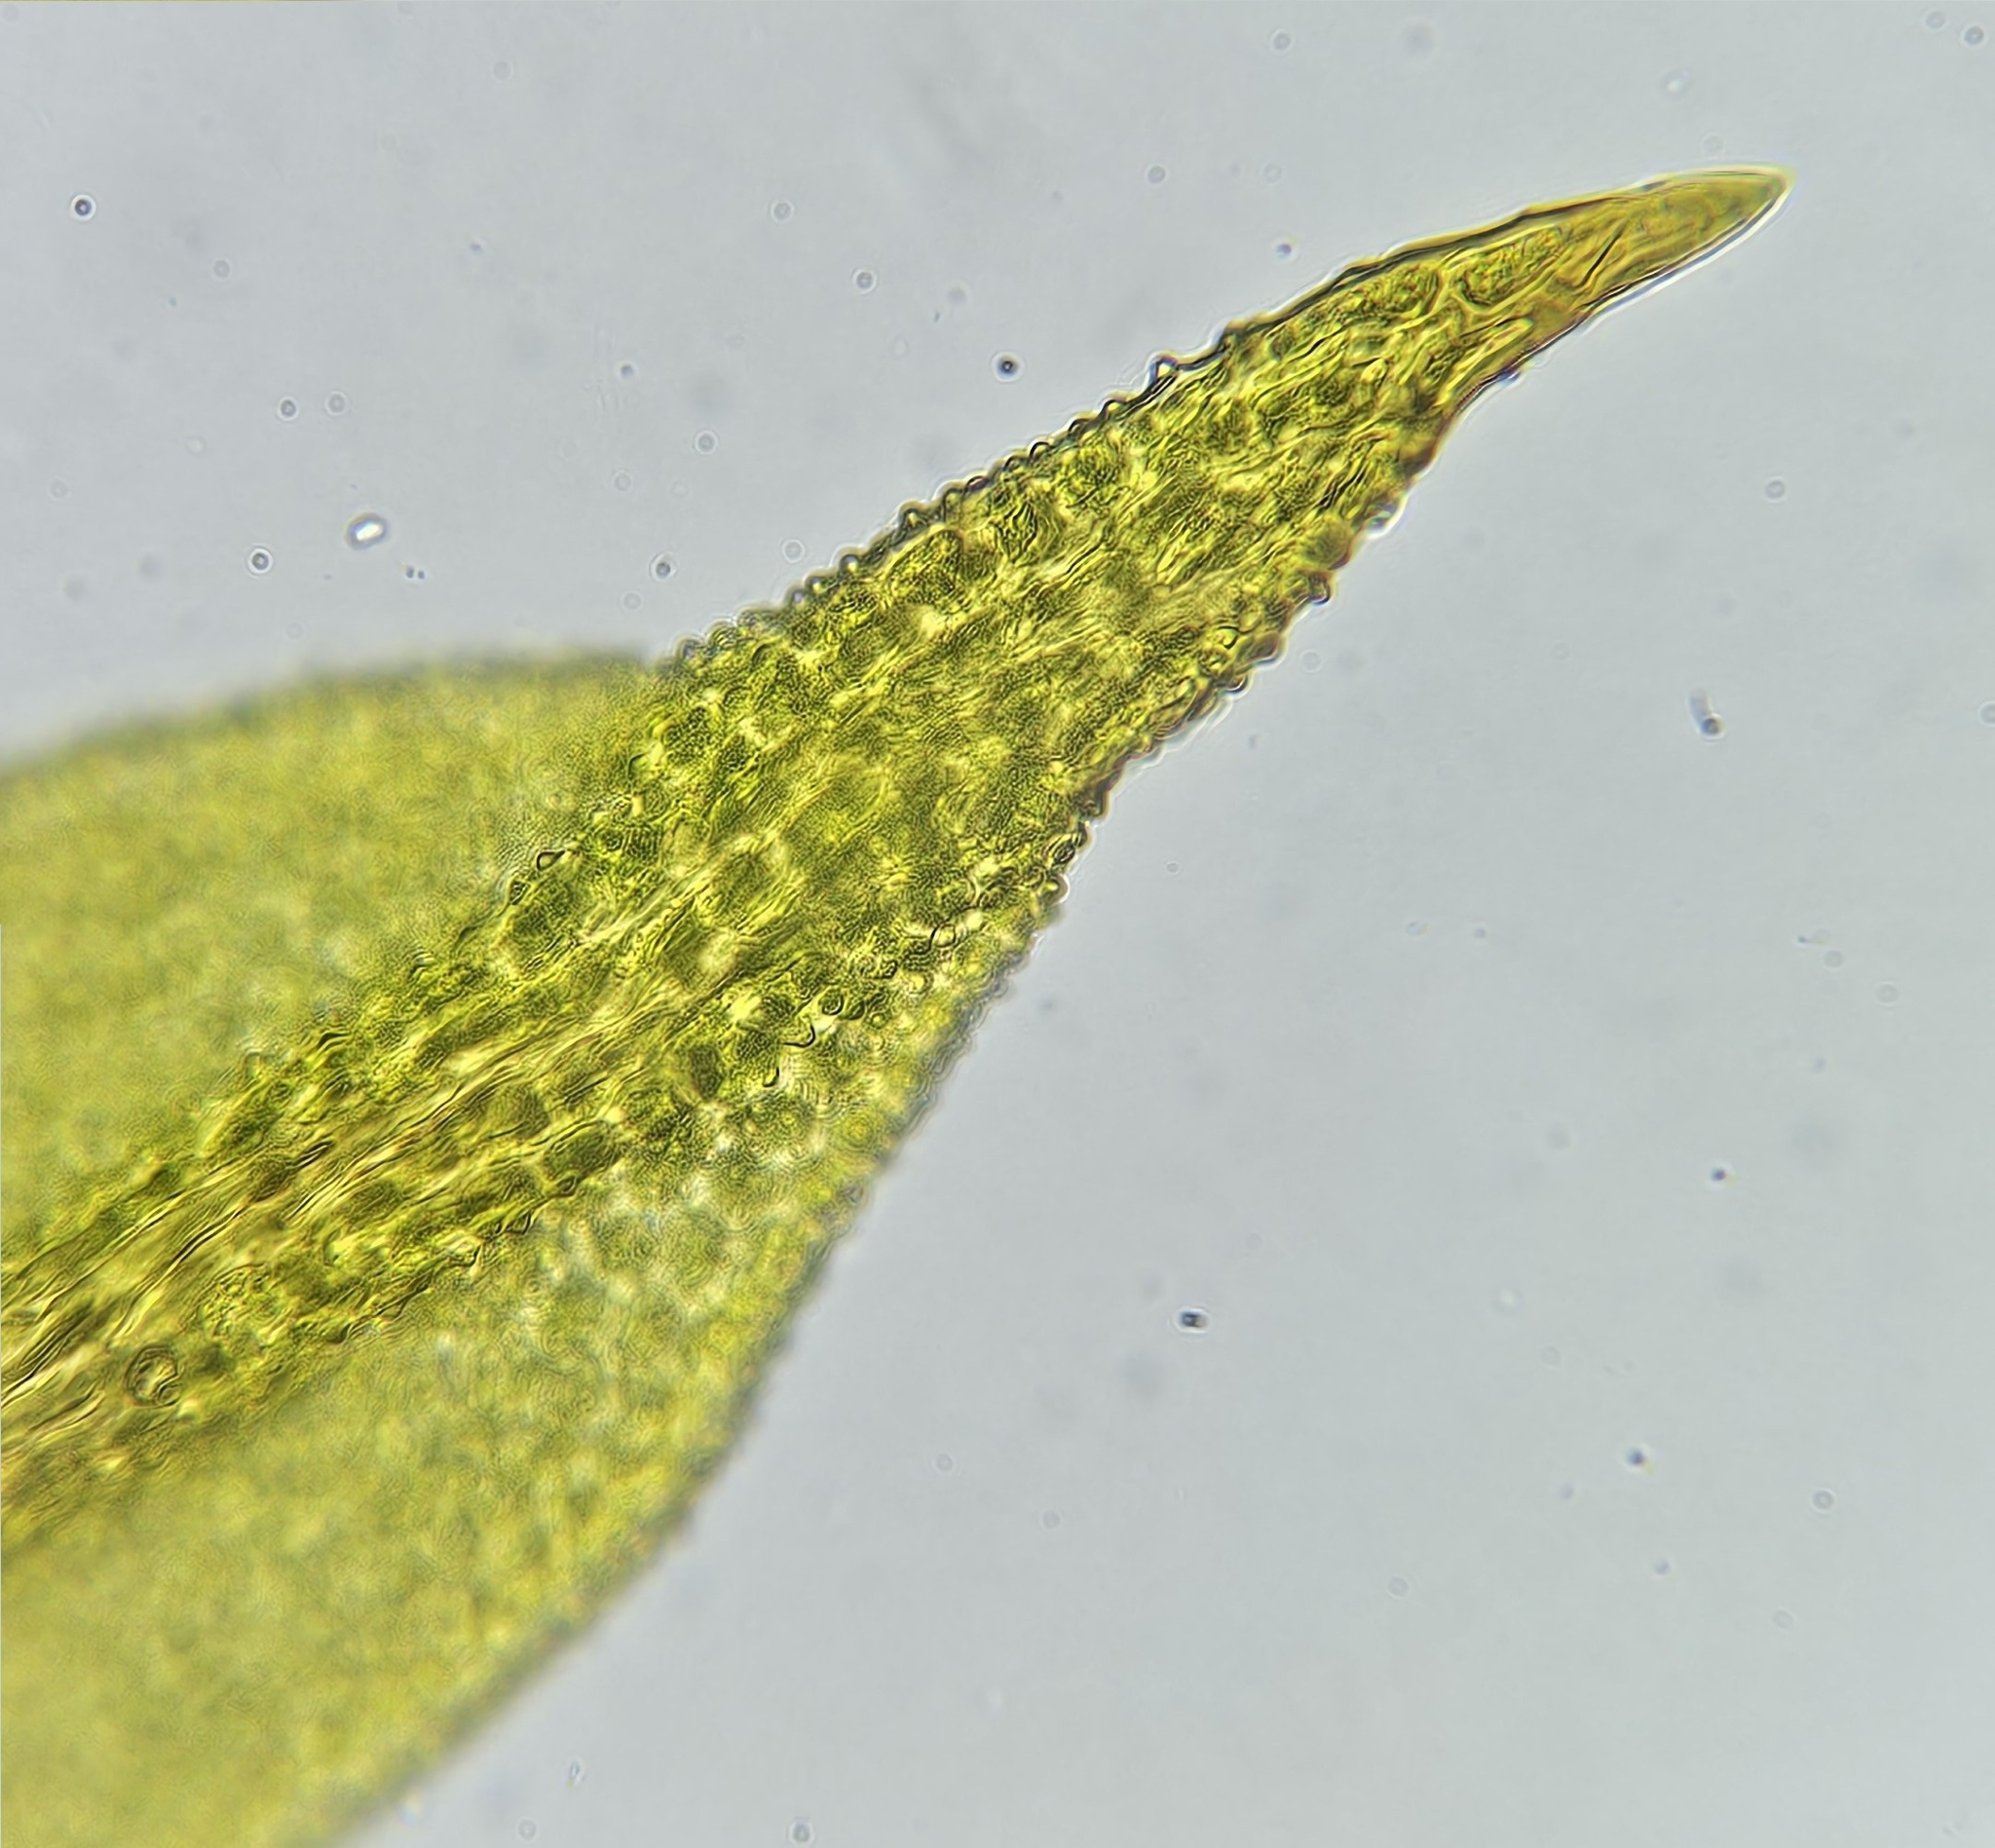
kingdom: Plantae
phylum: Bryophyta
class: Bryopsida
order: Orthotrichales
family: Orthotrichaceae
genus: Zygodon
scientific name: Zygodon stirtonii
